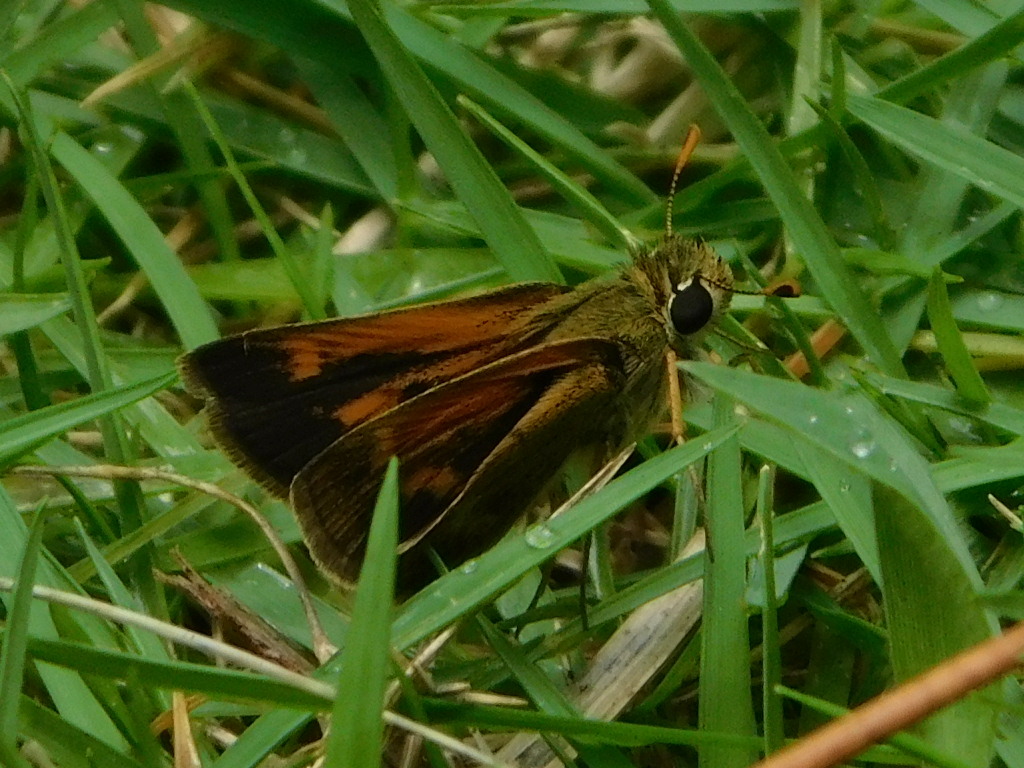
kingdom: Animalia
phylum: Arthropoda
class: Insecta
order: Lepidoptera
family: Hesperiidae
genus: Polites
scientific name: Polites baracoa
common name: Baracoa skipper
